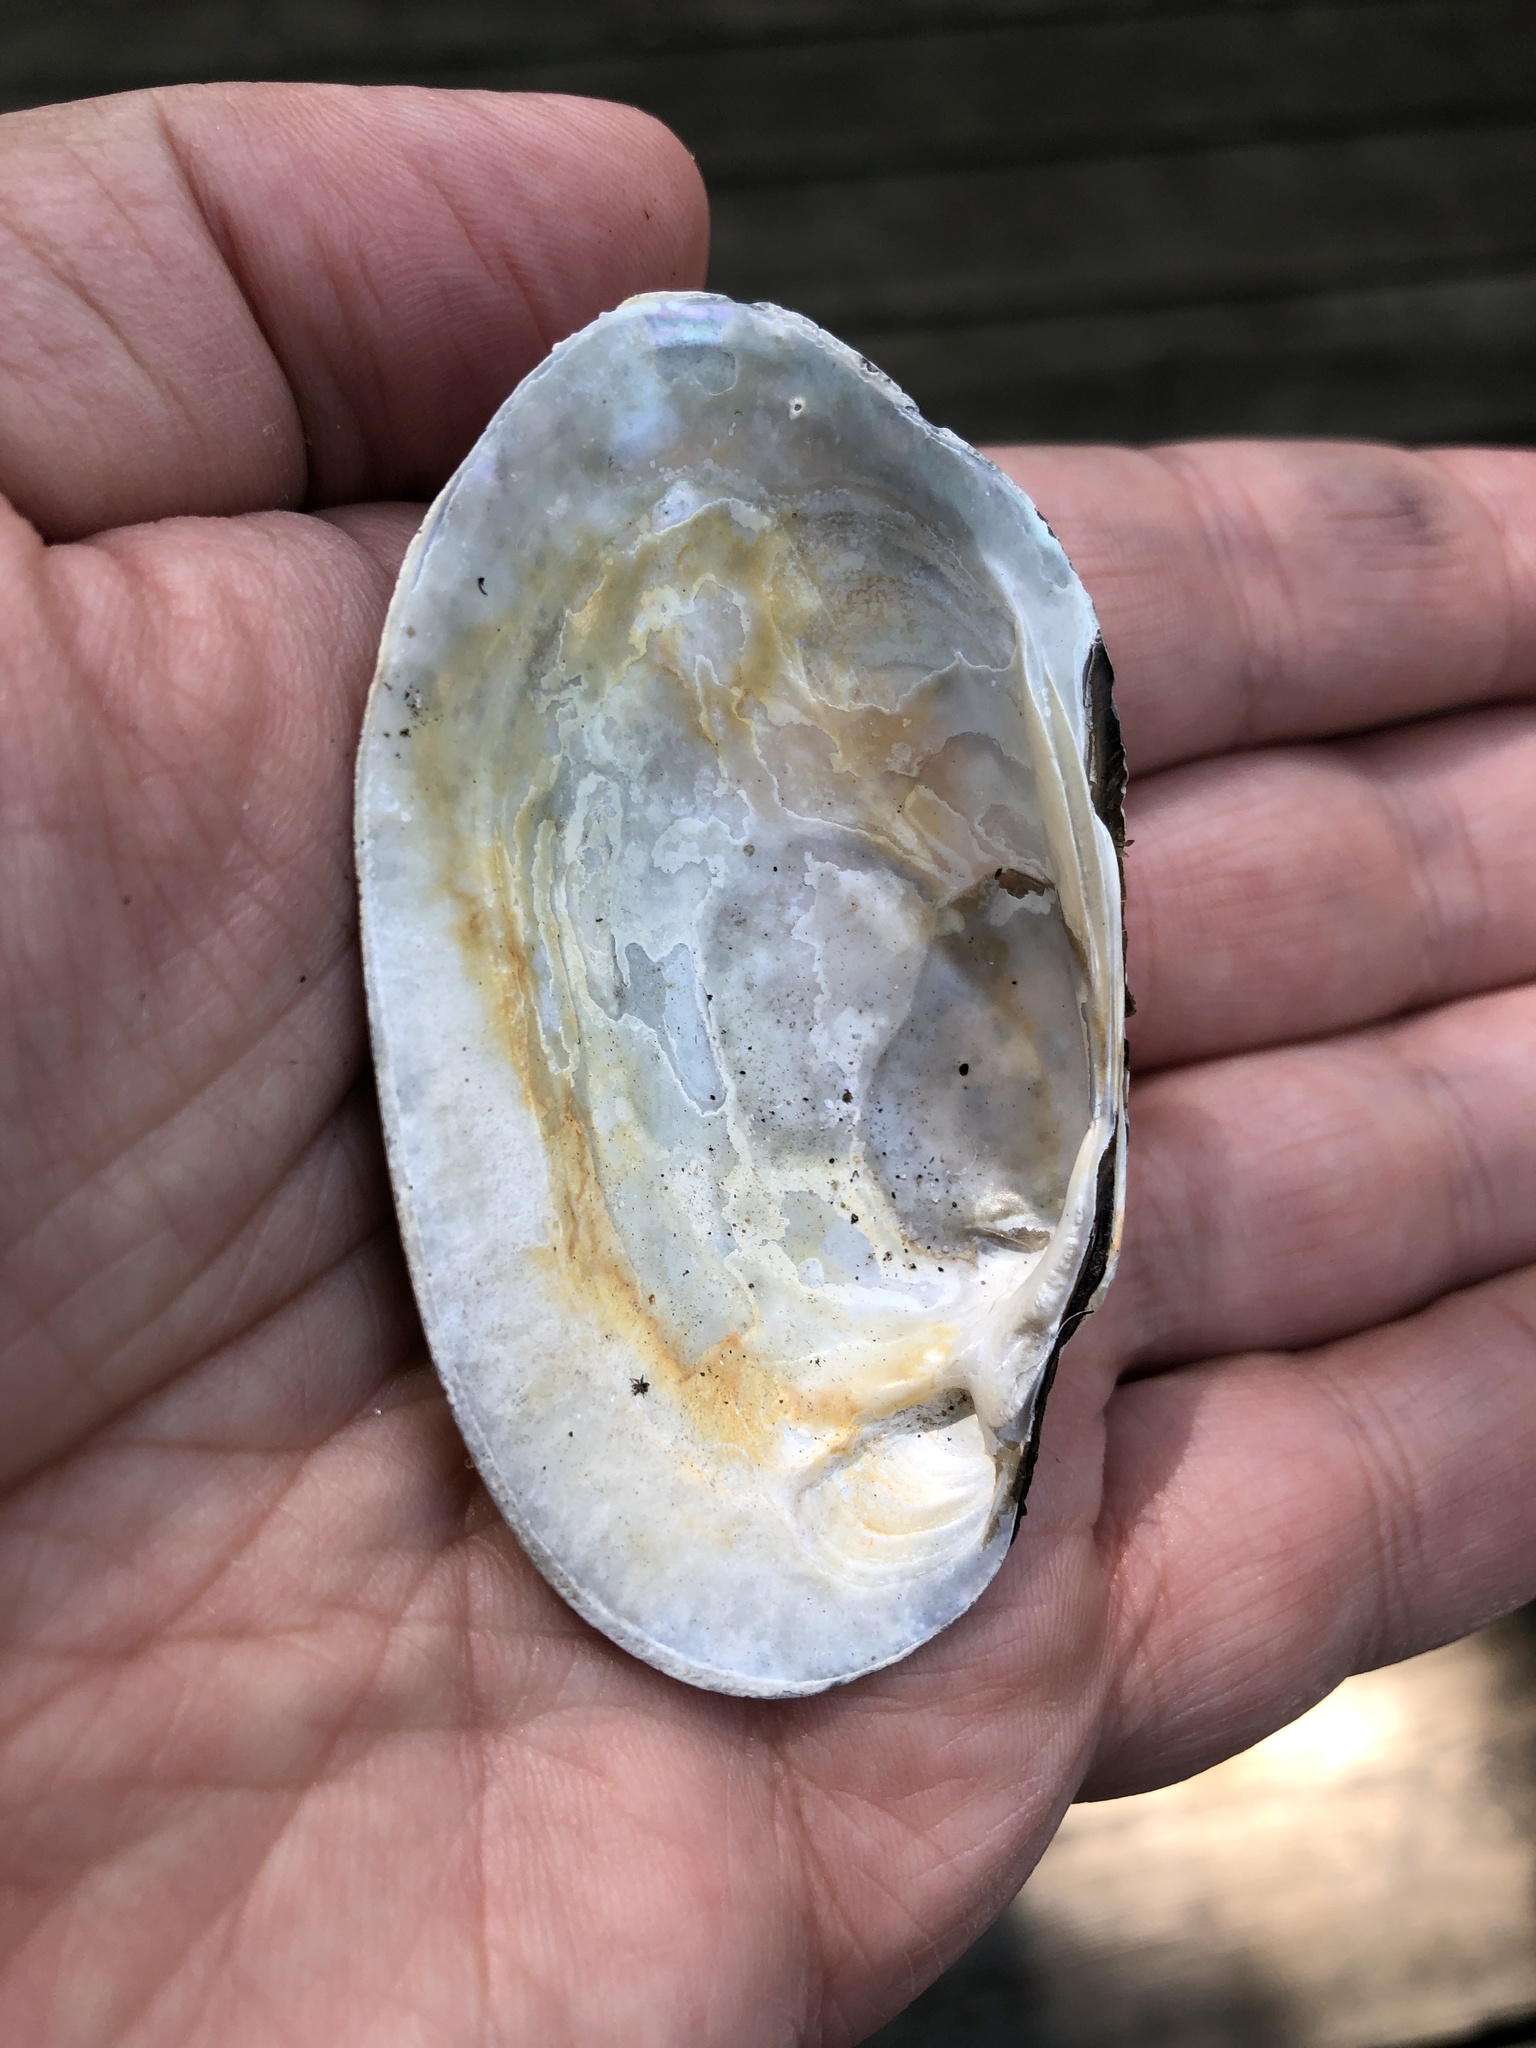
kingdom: Animalia
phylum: Mollusca
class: Bivalvia
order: Unionida
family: Unionidae
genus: Lampsilis
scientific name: Lampsilis siliquoidea
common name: Fatmucket
